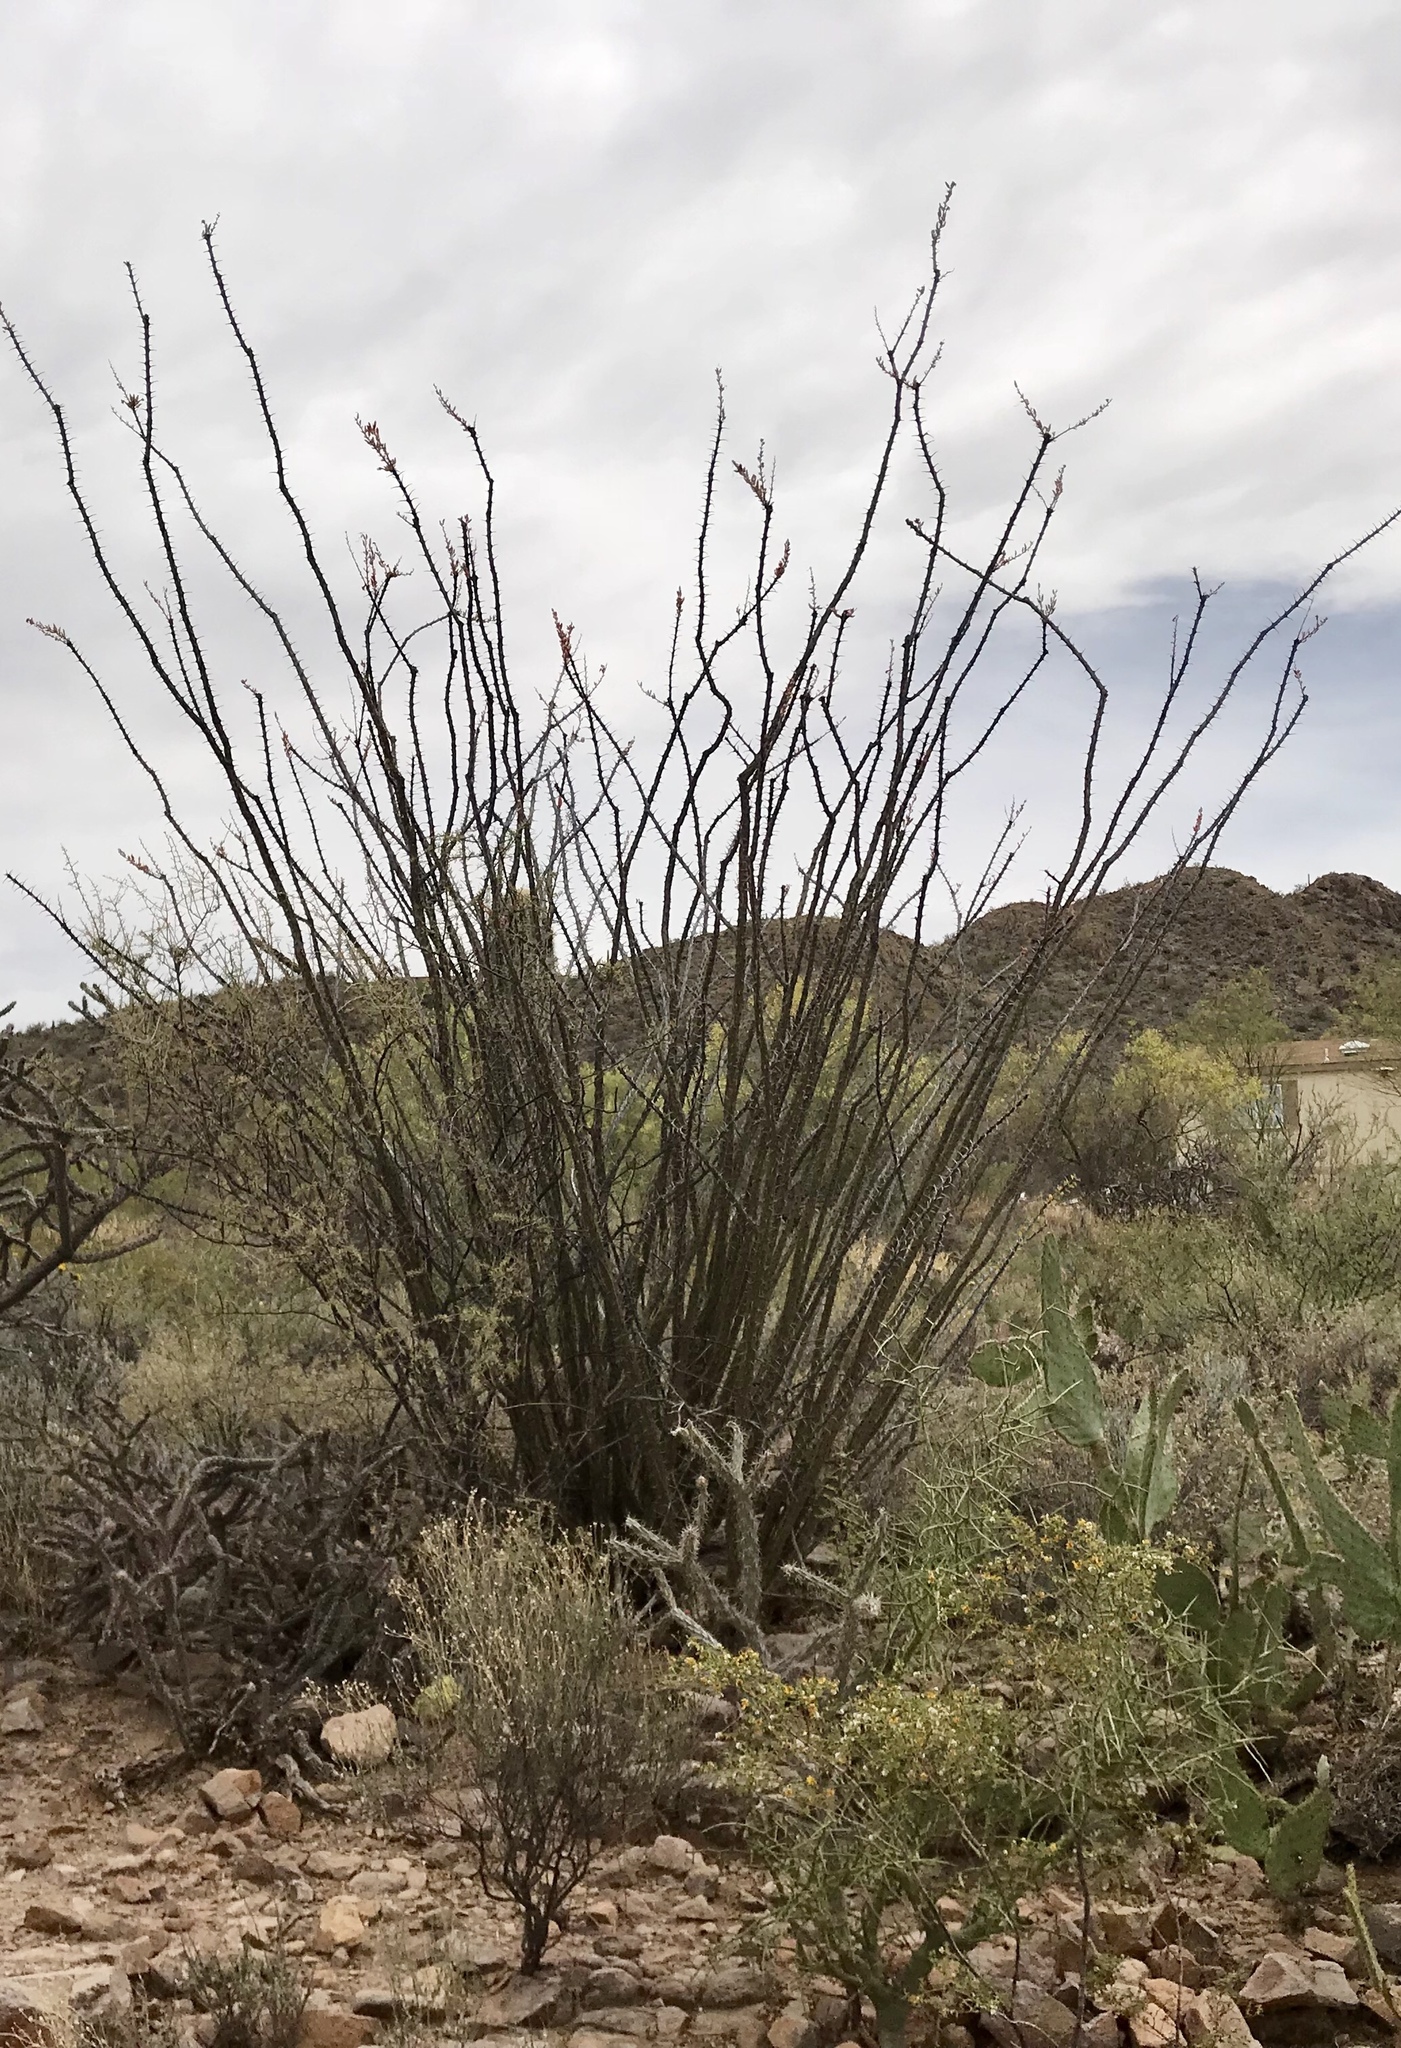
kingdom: Plantae
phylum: Tracheophyta
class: Magnoliopsida
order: Ericales
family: Fouquieriaceae
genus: Fouquieria
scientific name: Fouquieria splendens
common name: Vine-cactus
